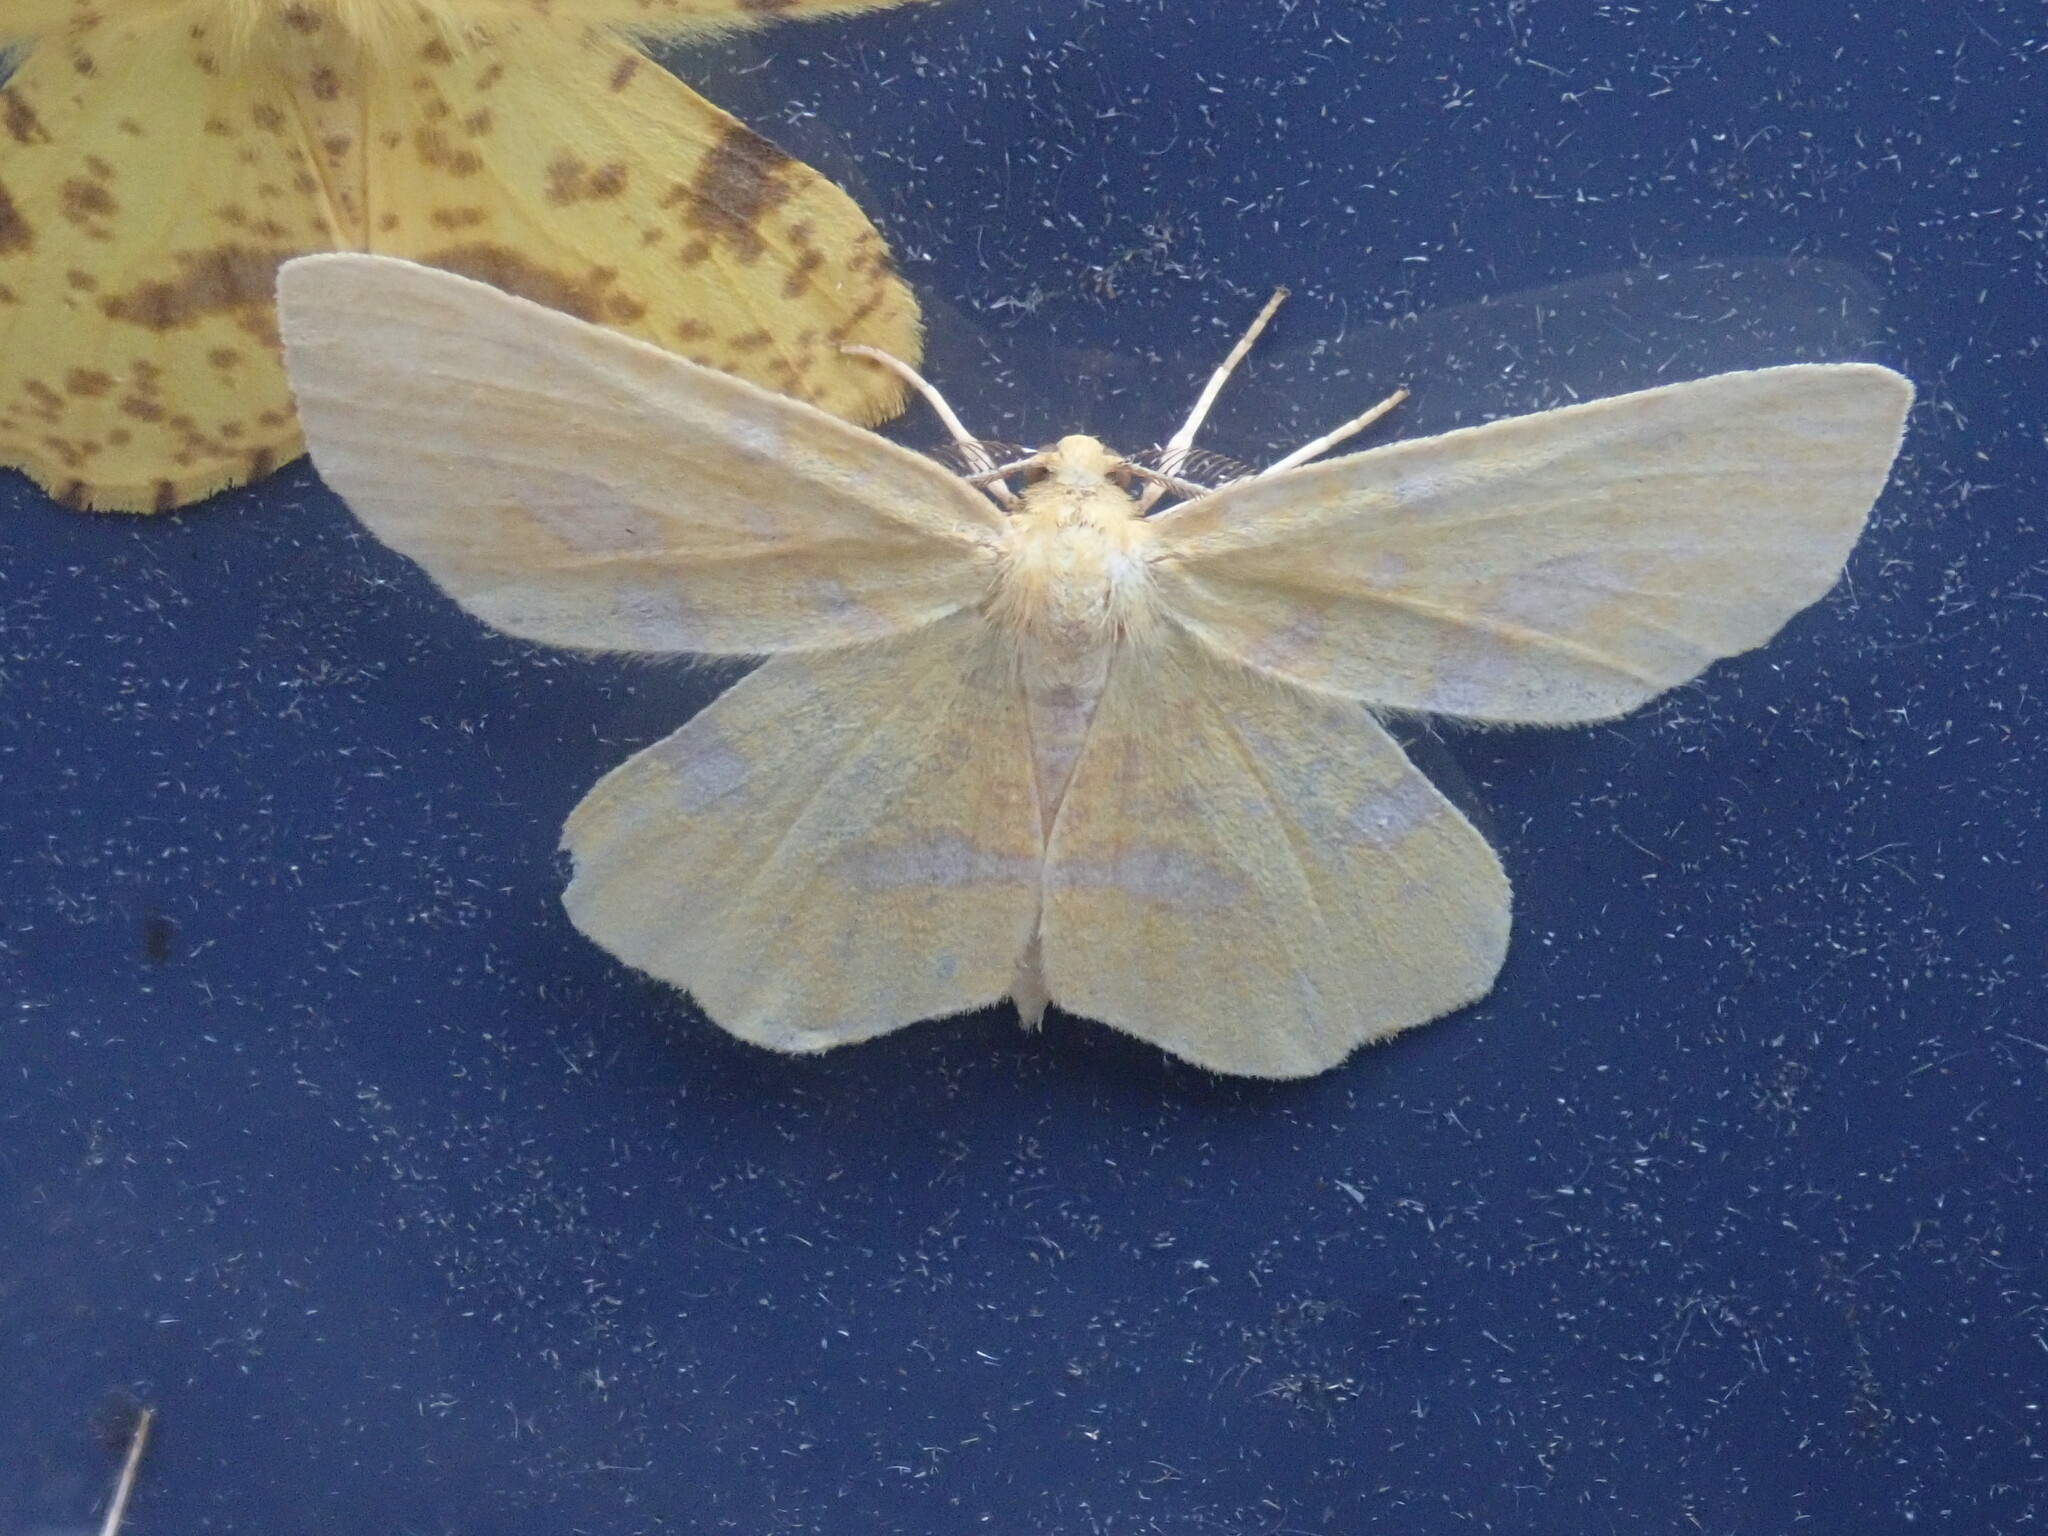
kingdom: Animalia
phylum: Arthropoda
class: Insecta
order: Lepidoptera
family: Geometridae
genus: Xanthotype
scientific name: Xanthotype
